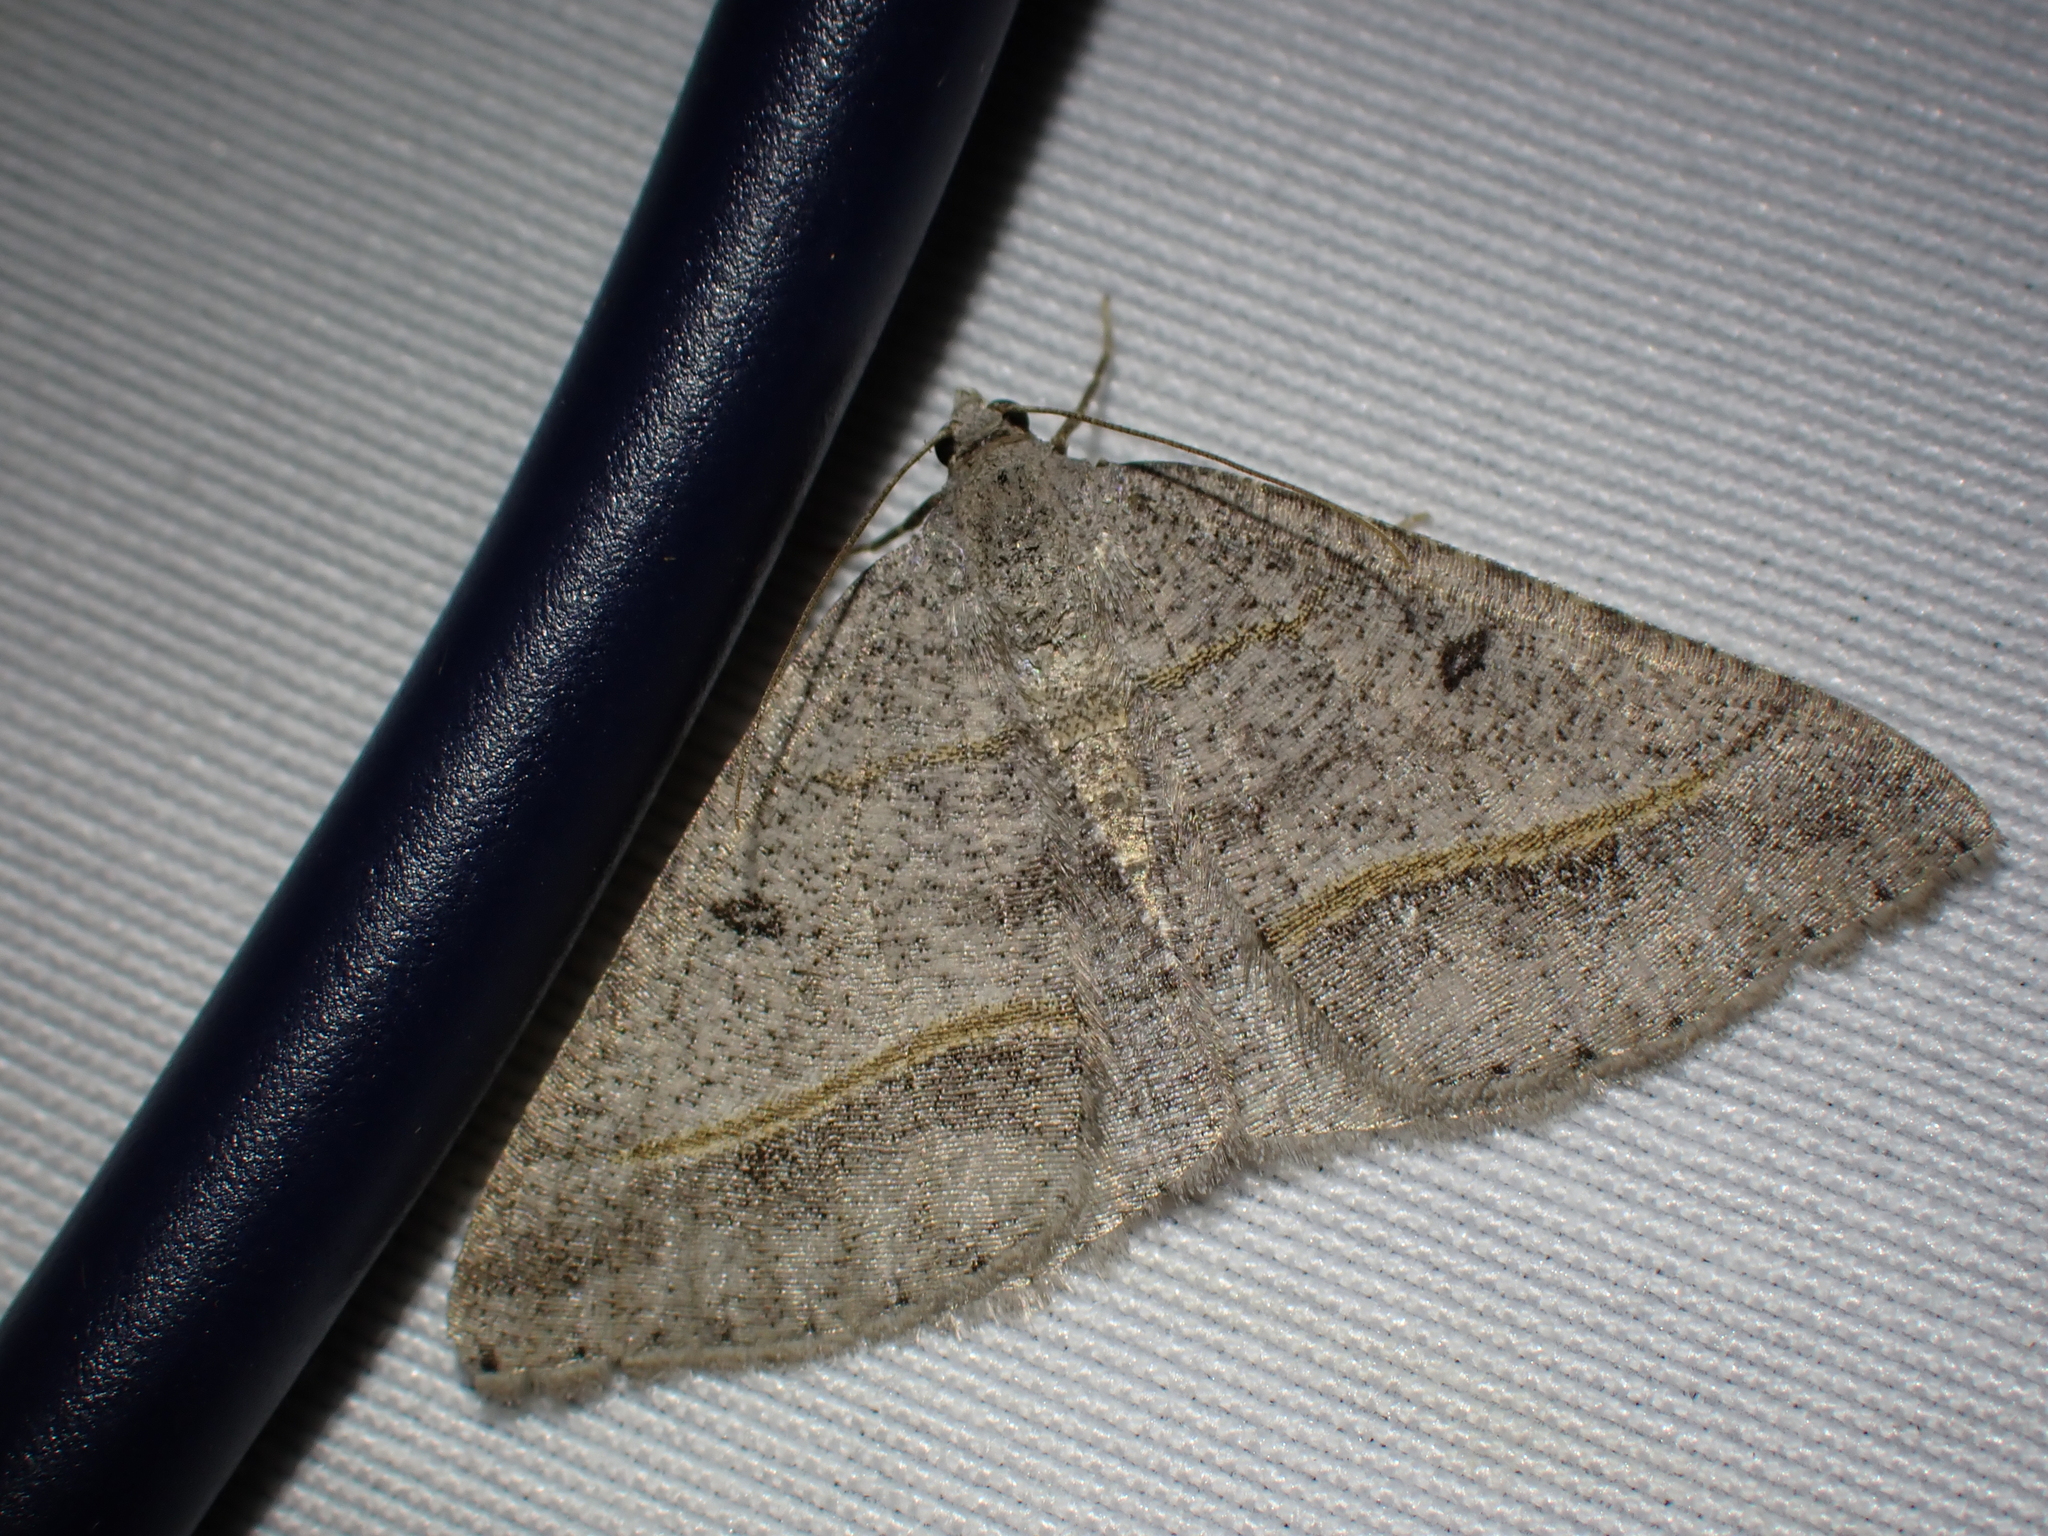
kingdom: Animalia
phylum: Arthropoda
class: Insecta
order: Lepidoptera
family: Geometridae
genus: Digrammia
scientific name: Digrammia neptaria
